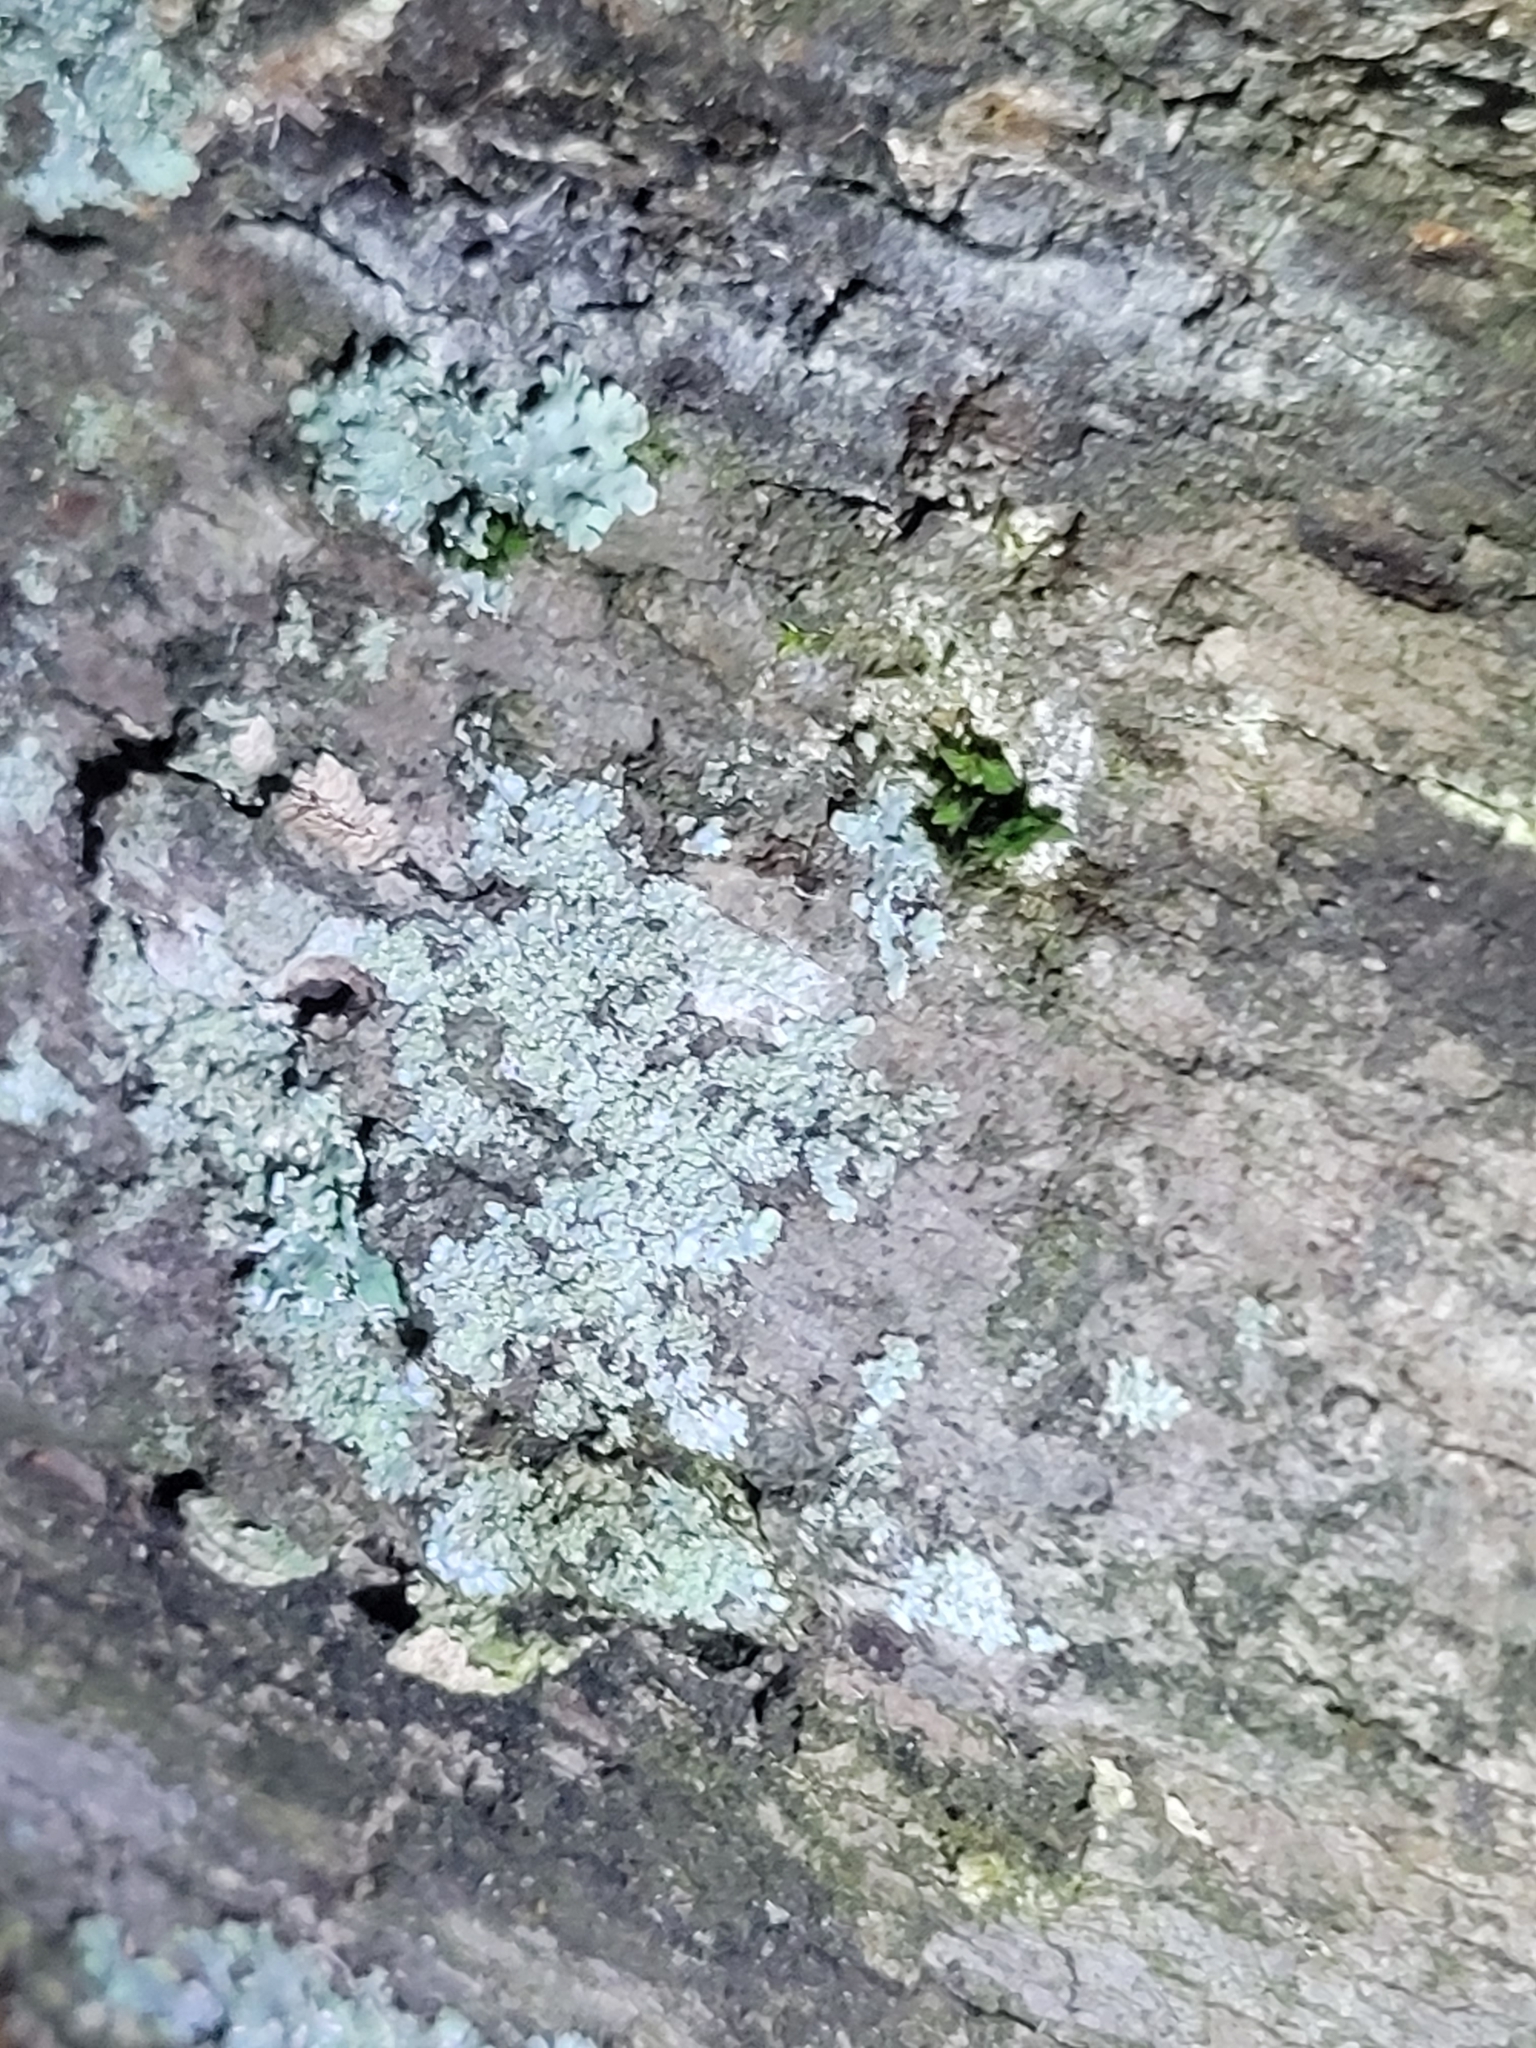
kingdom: Fungi
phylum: Ascomycota
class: Lecanoromycetes
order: Caliciales
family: Caliciaceae
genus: Pyxine
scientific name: Pyxine subcinerea
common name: Mustard lichen
